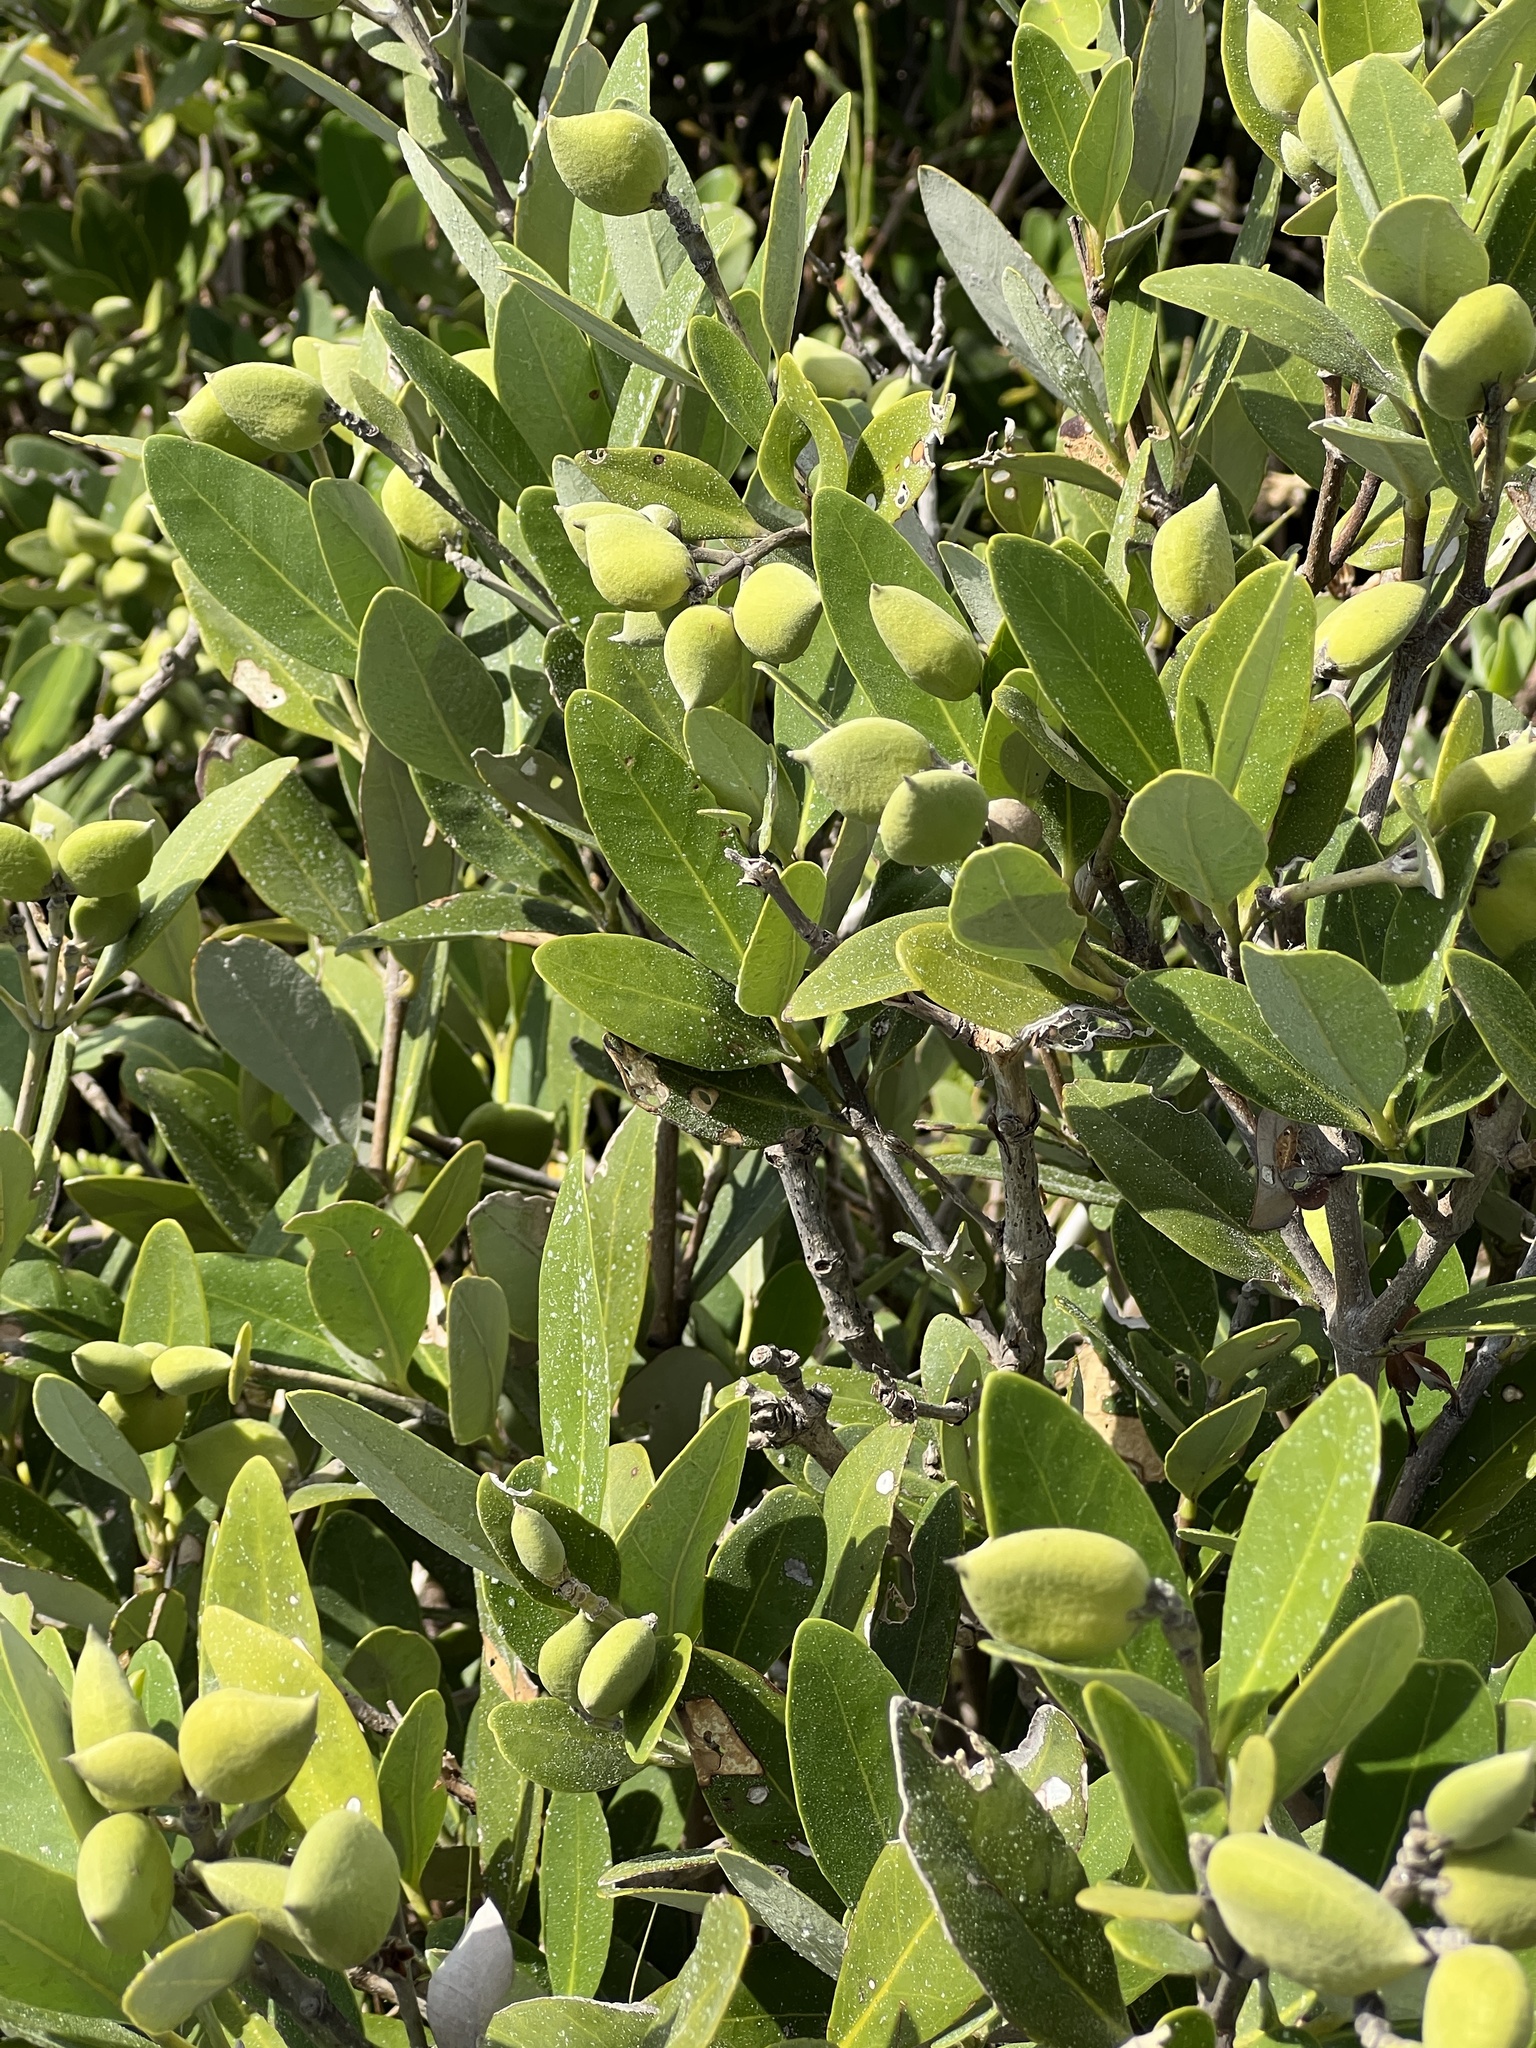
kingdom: Plantae
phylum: Tracheophyta
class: Magnoliopsida
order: Lamiales
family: Acanthaceae
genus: Avicennia
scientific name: Avicennia germinans
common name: Black mangrove
